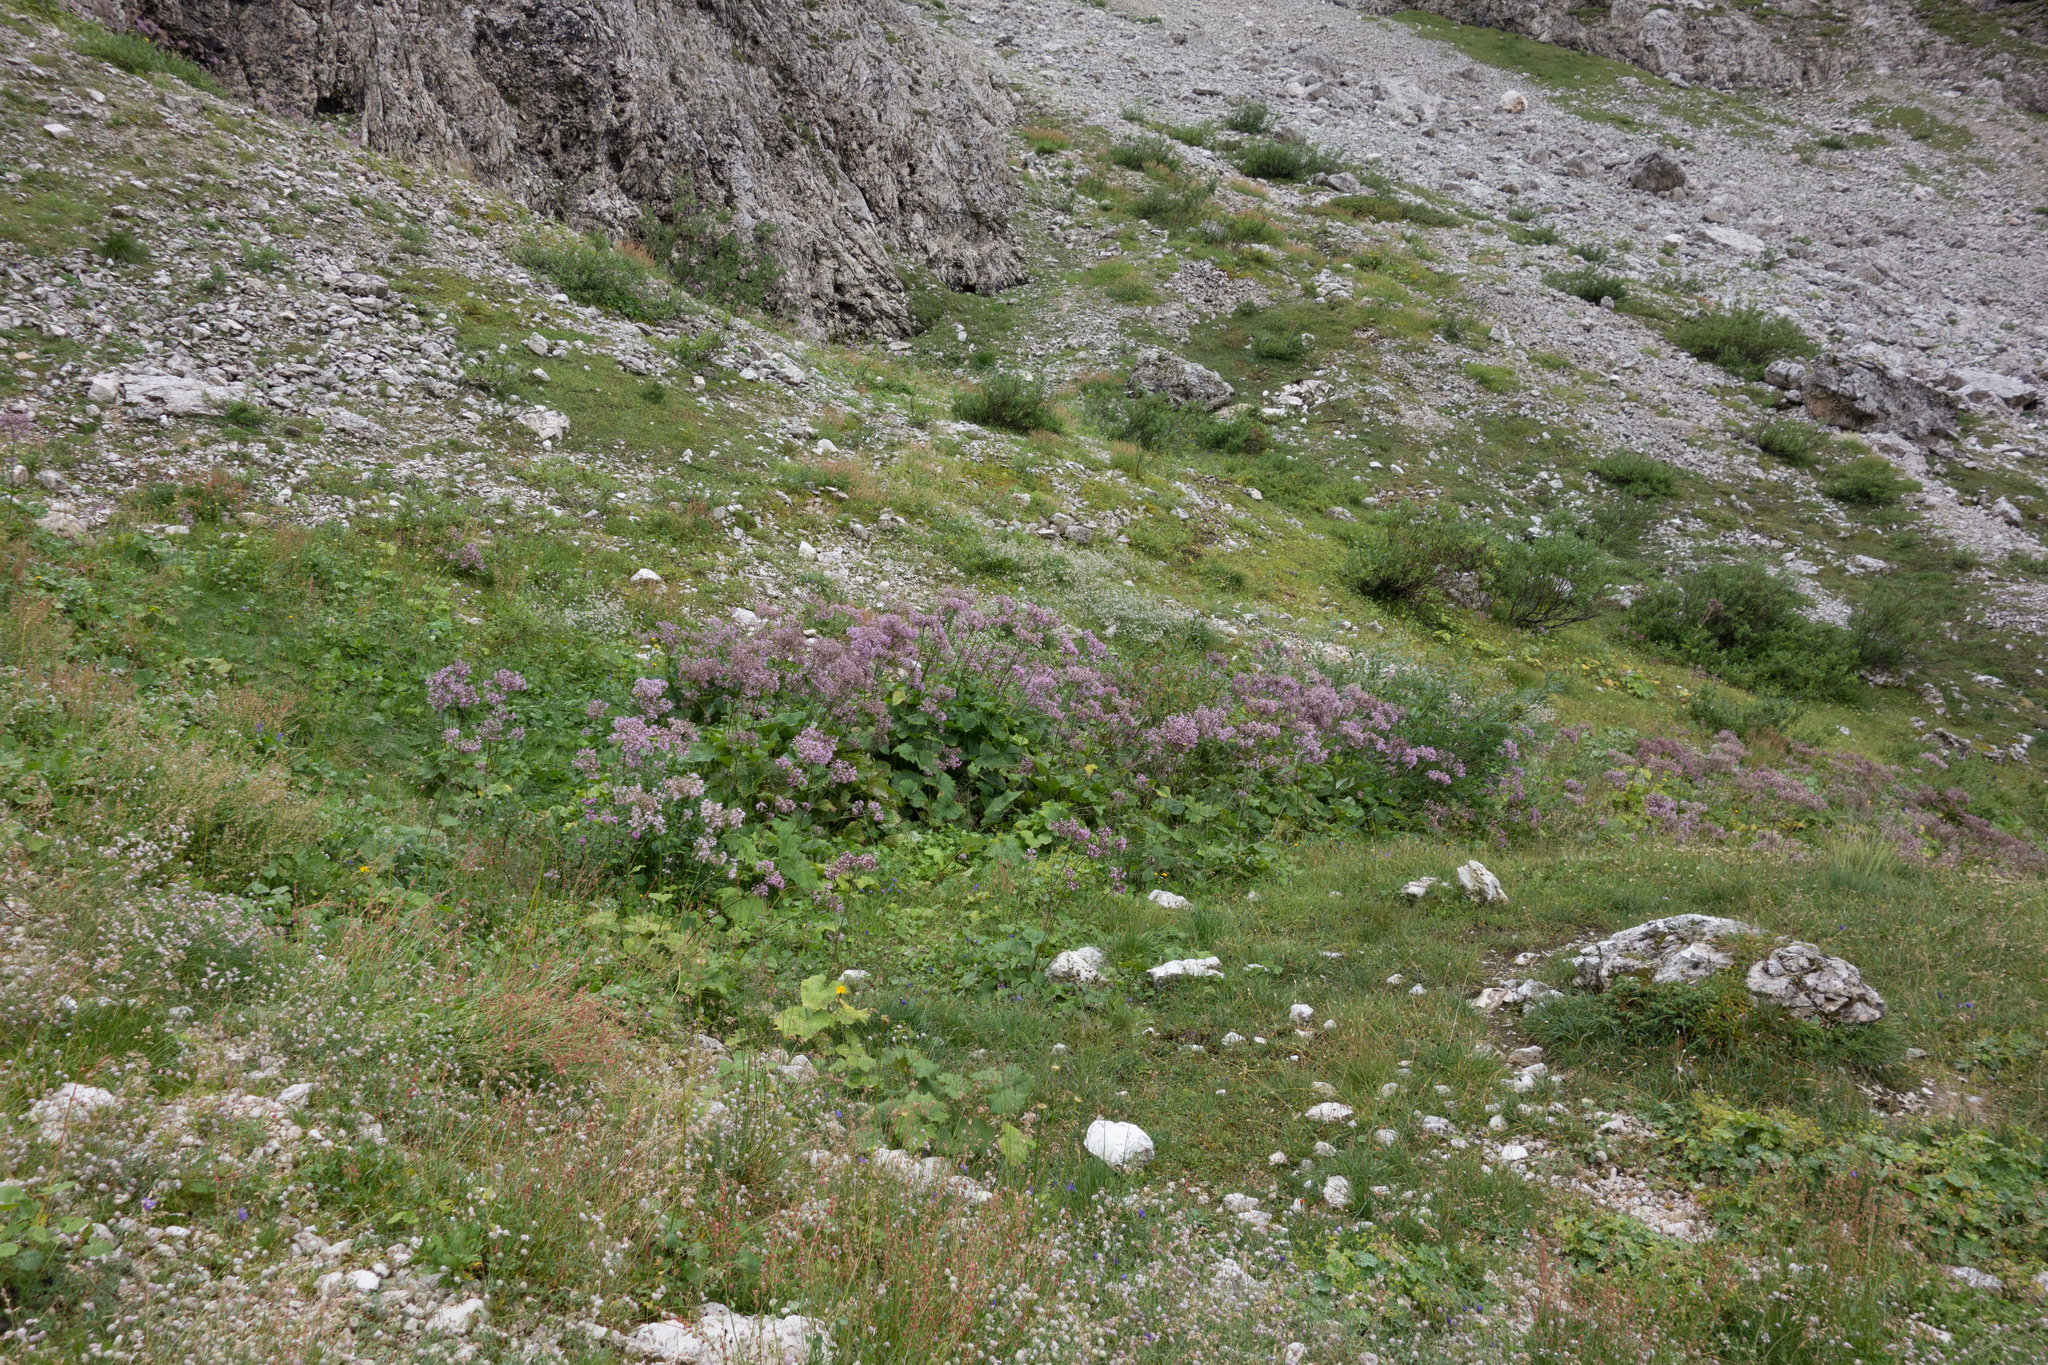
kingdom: Plantae
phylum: Tracheophyta
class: Magnoliopsida
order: Asterales
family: Asteraceae
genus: Adenostyles
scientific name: Adenostyles alliariae
